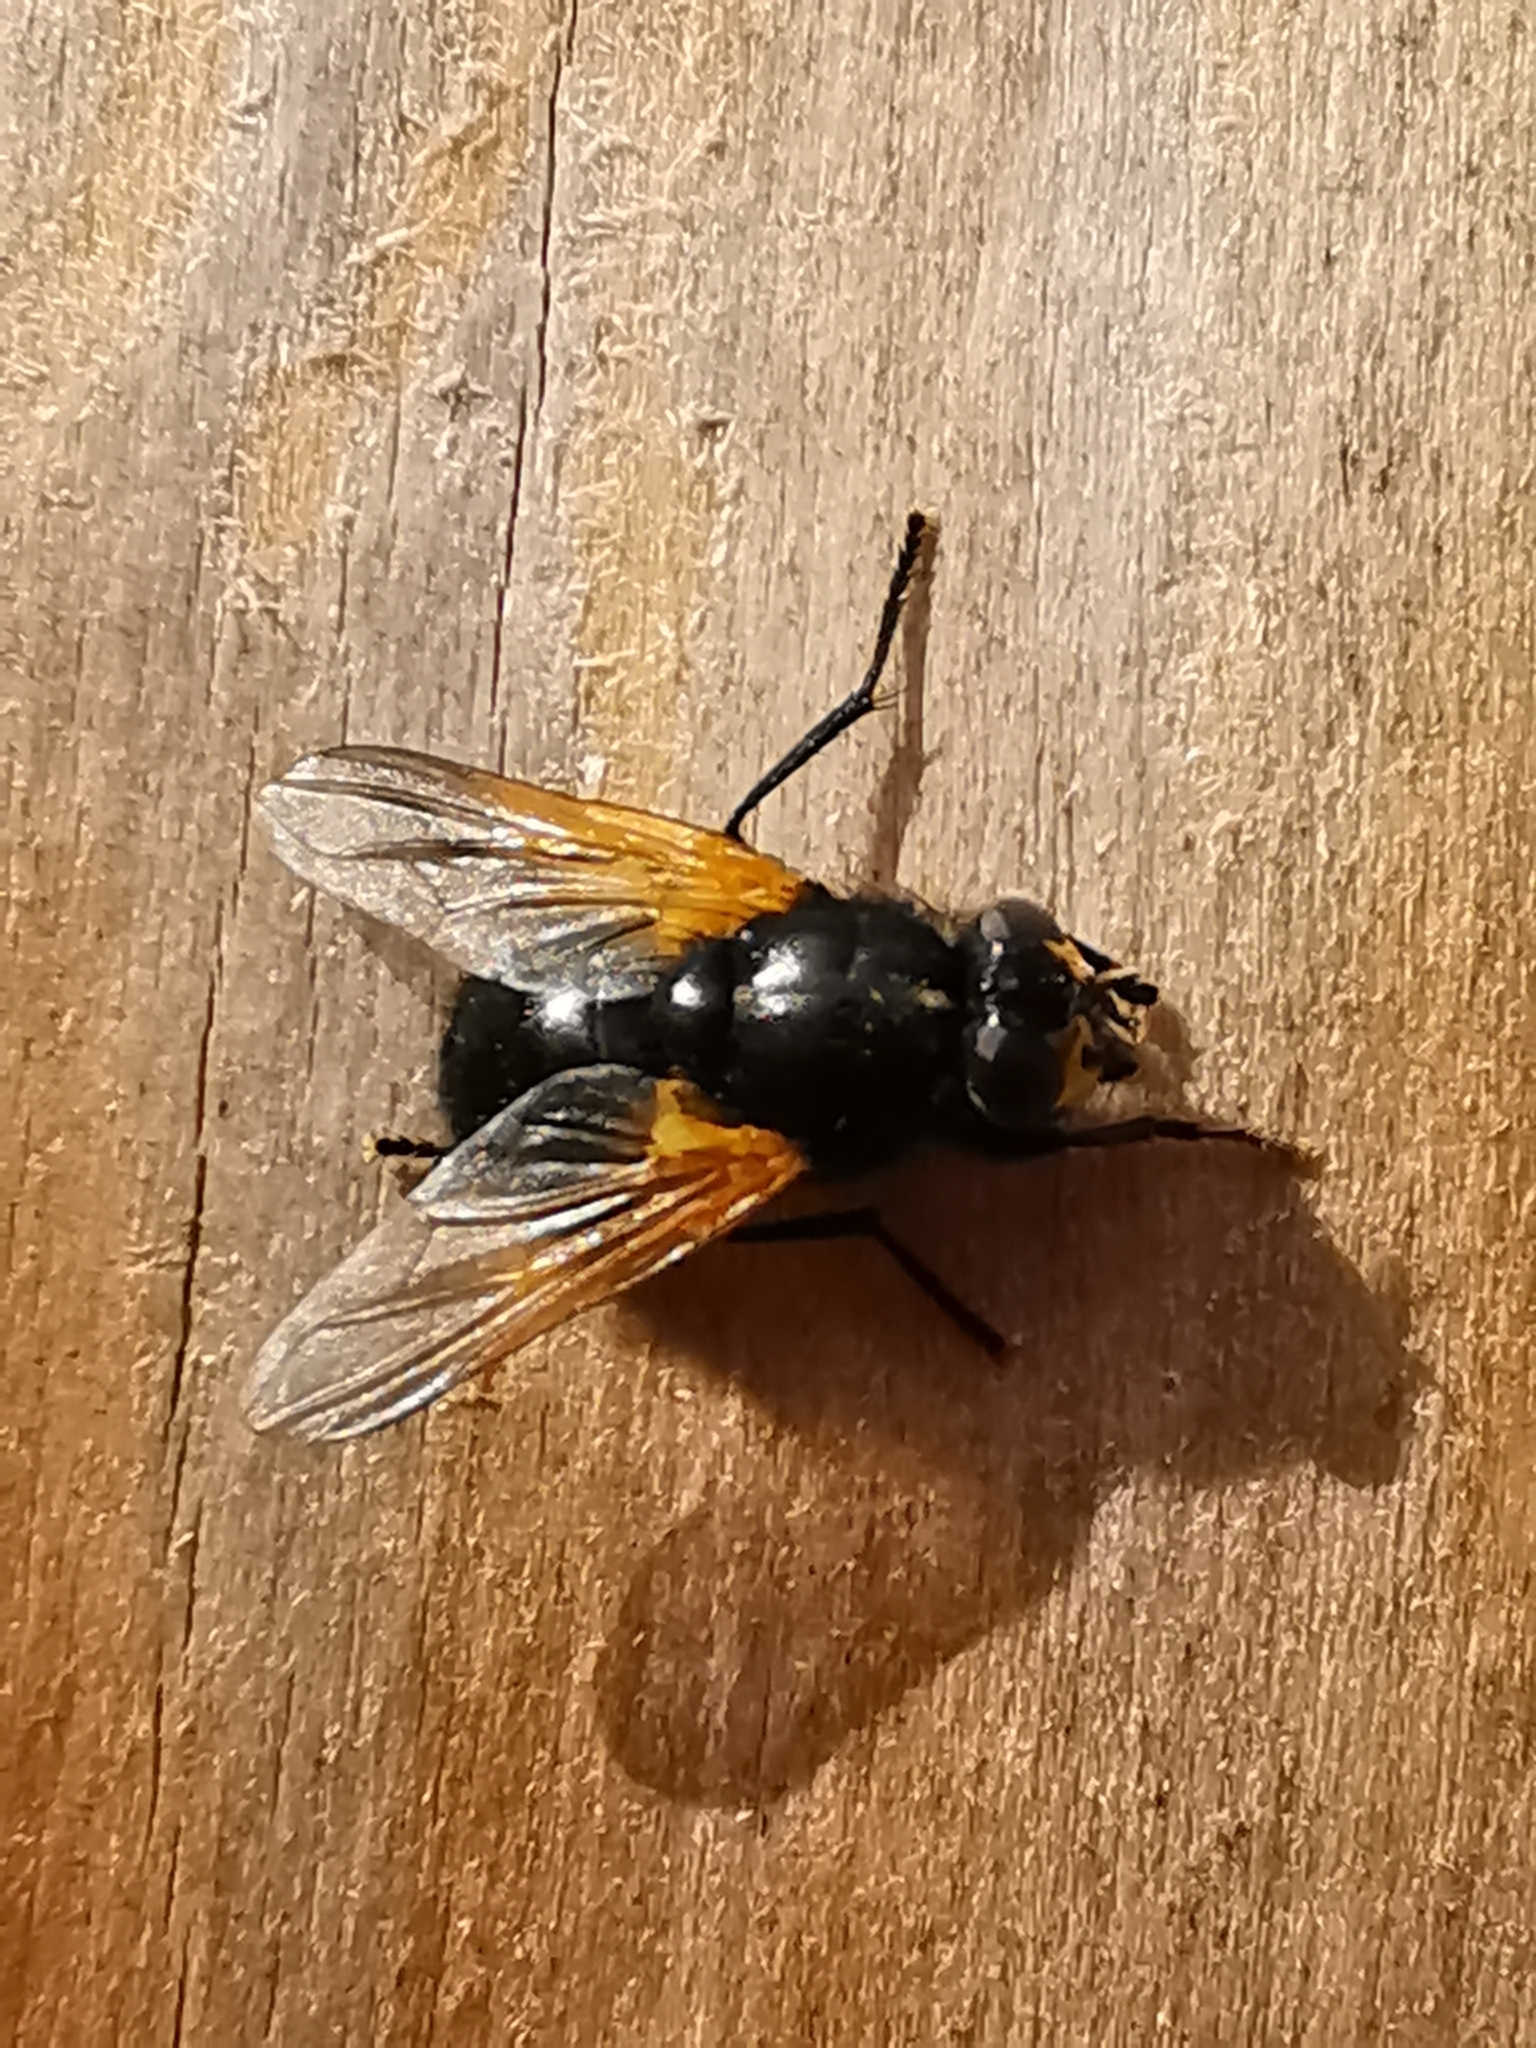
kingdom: Animalia
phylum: Arthropoda
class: Insecta
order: Diptera
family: Muscidae
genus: Mesembrina
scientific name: Mesembrina meridiana
